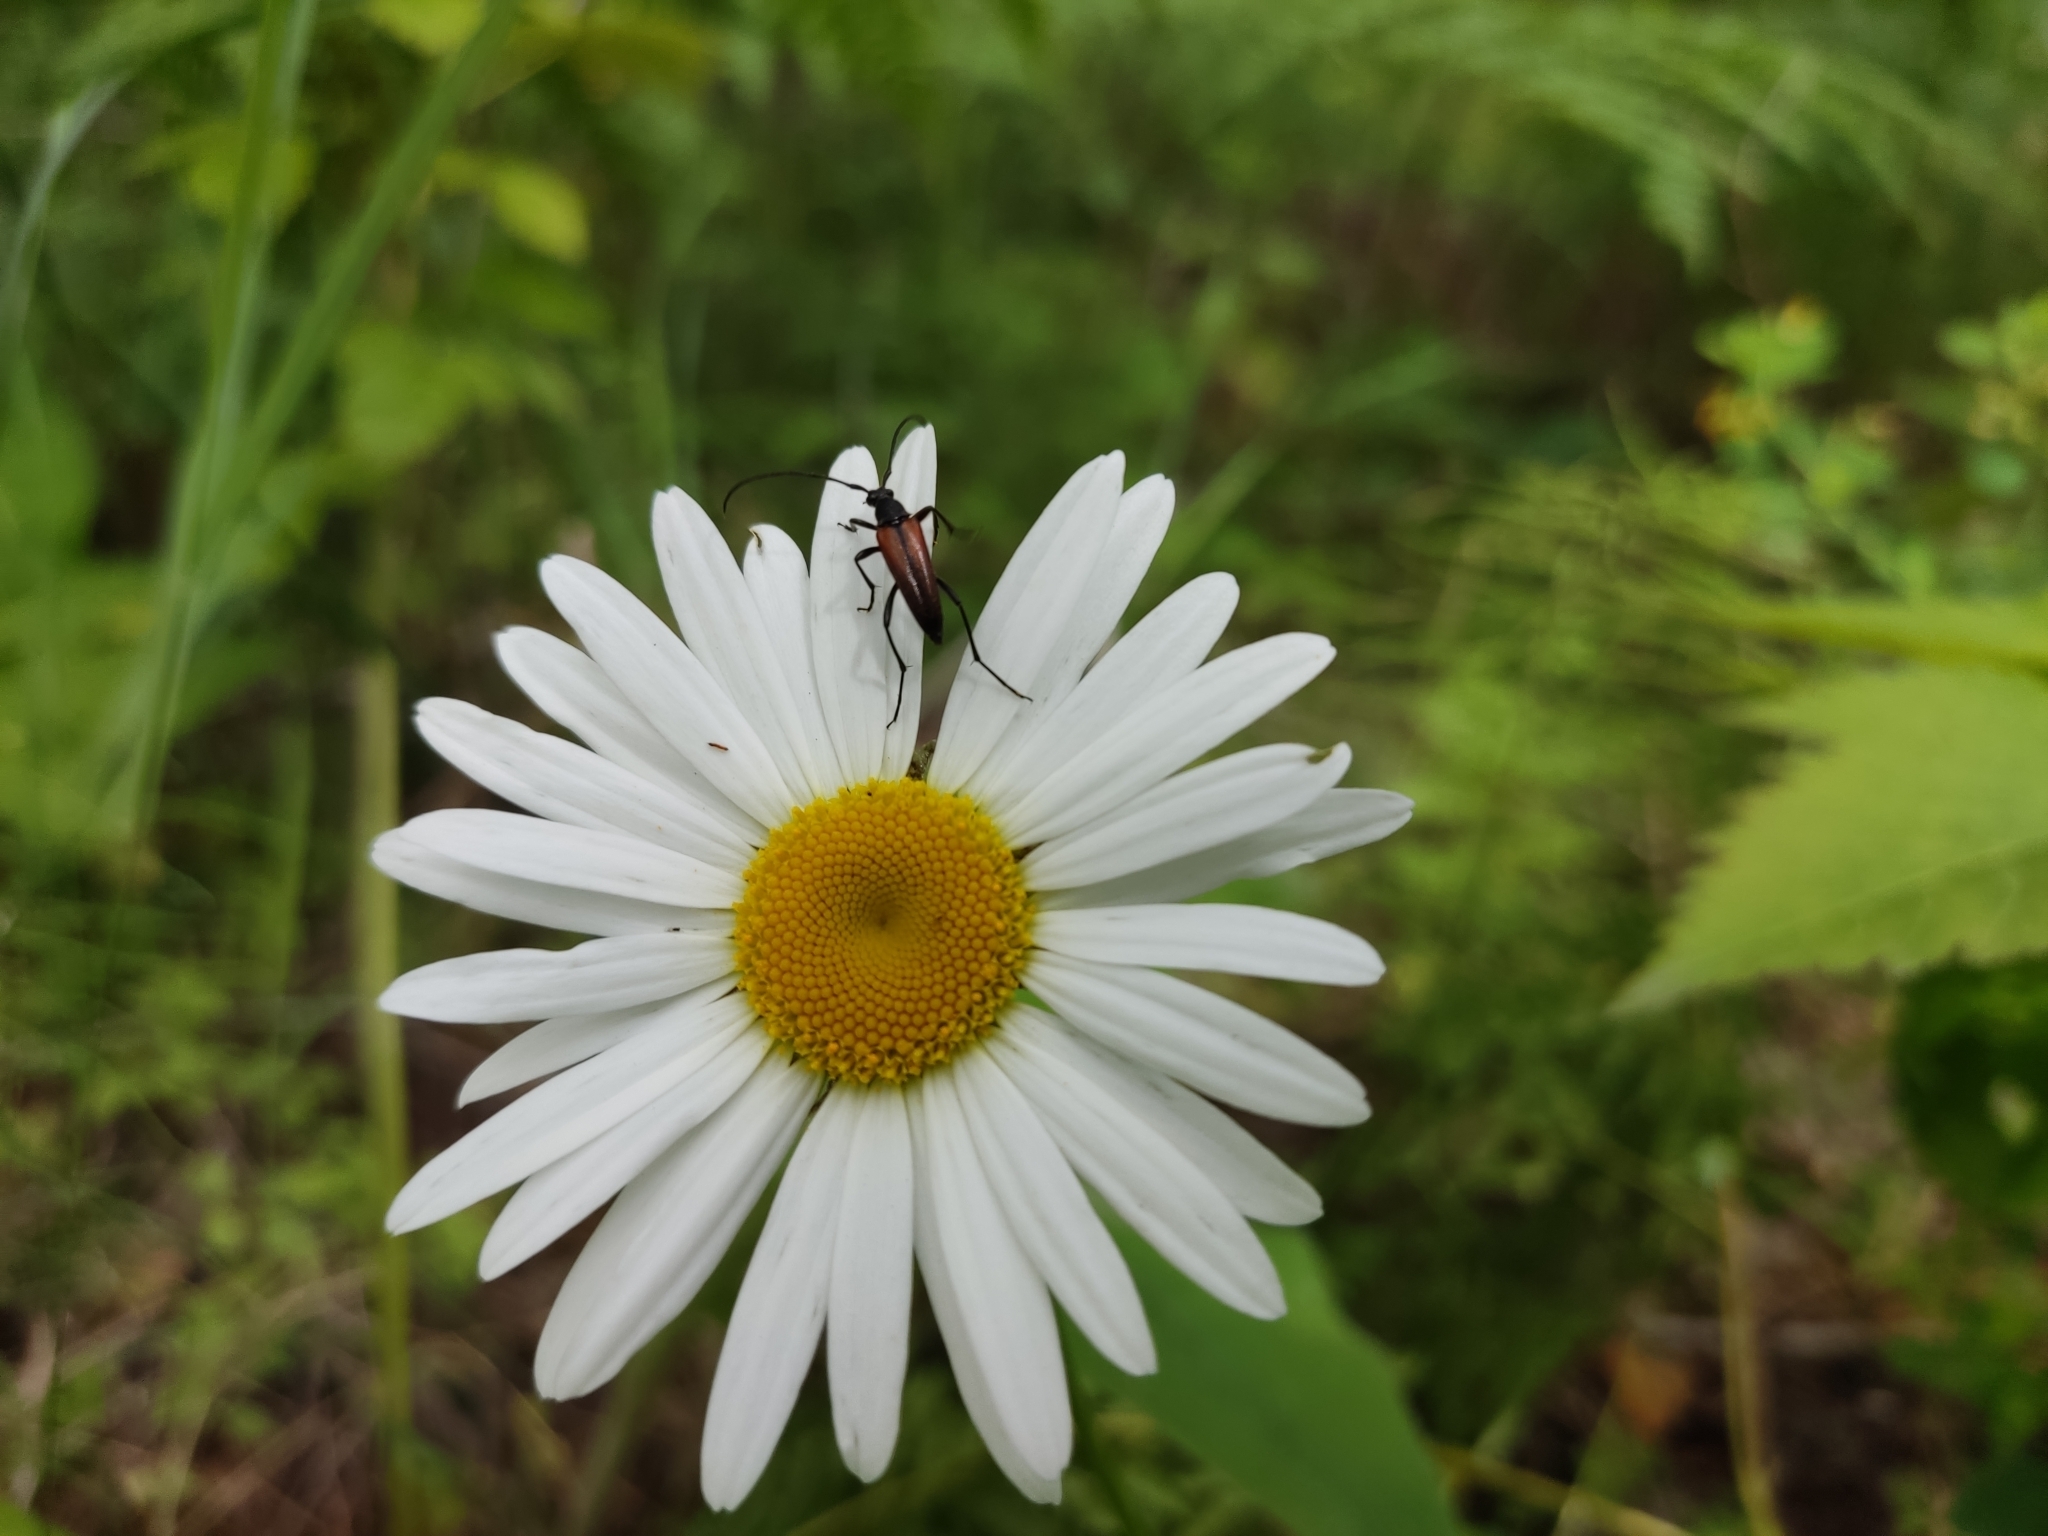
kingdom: Animalia
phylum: Arthropoda
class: Insecta
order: Coleoptera
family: Cerambycidae
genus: Stenurella
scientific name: Stenurella melanura
